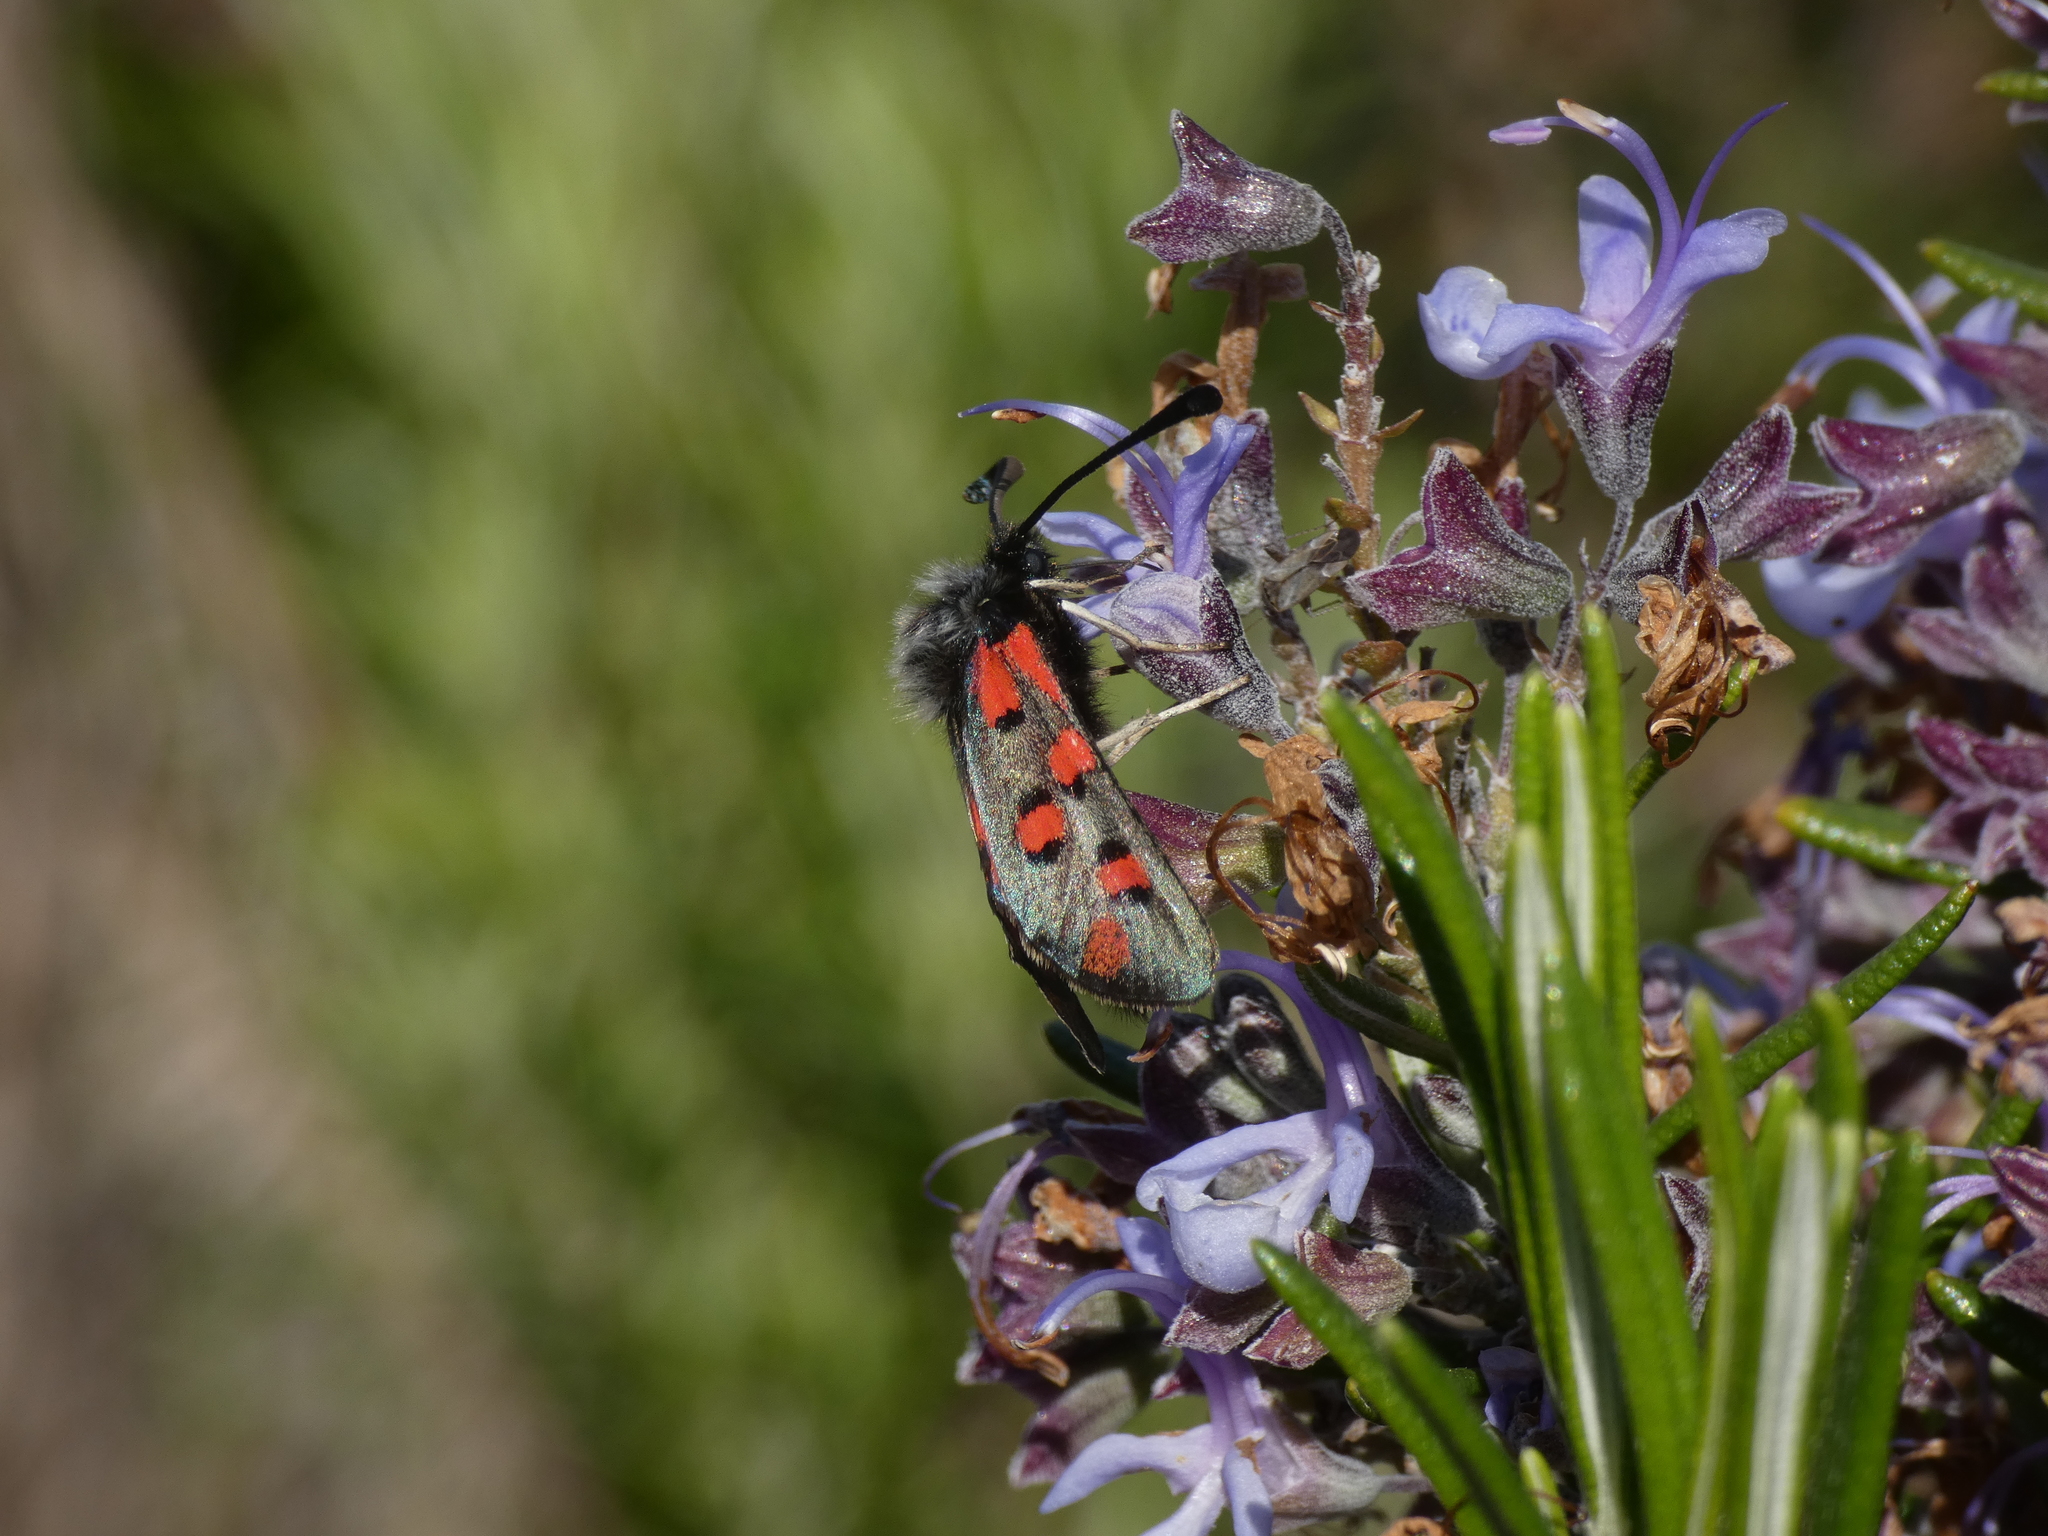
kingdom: Animalia
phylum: Arthropoda
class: Insecta
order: Lepidoptera
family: Zygaenidae
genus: Zygaena
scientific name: Zygaena rhadamanthus
